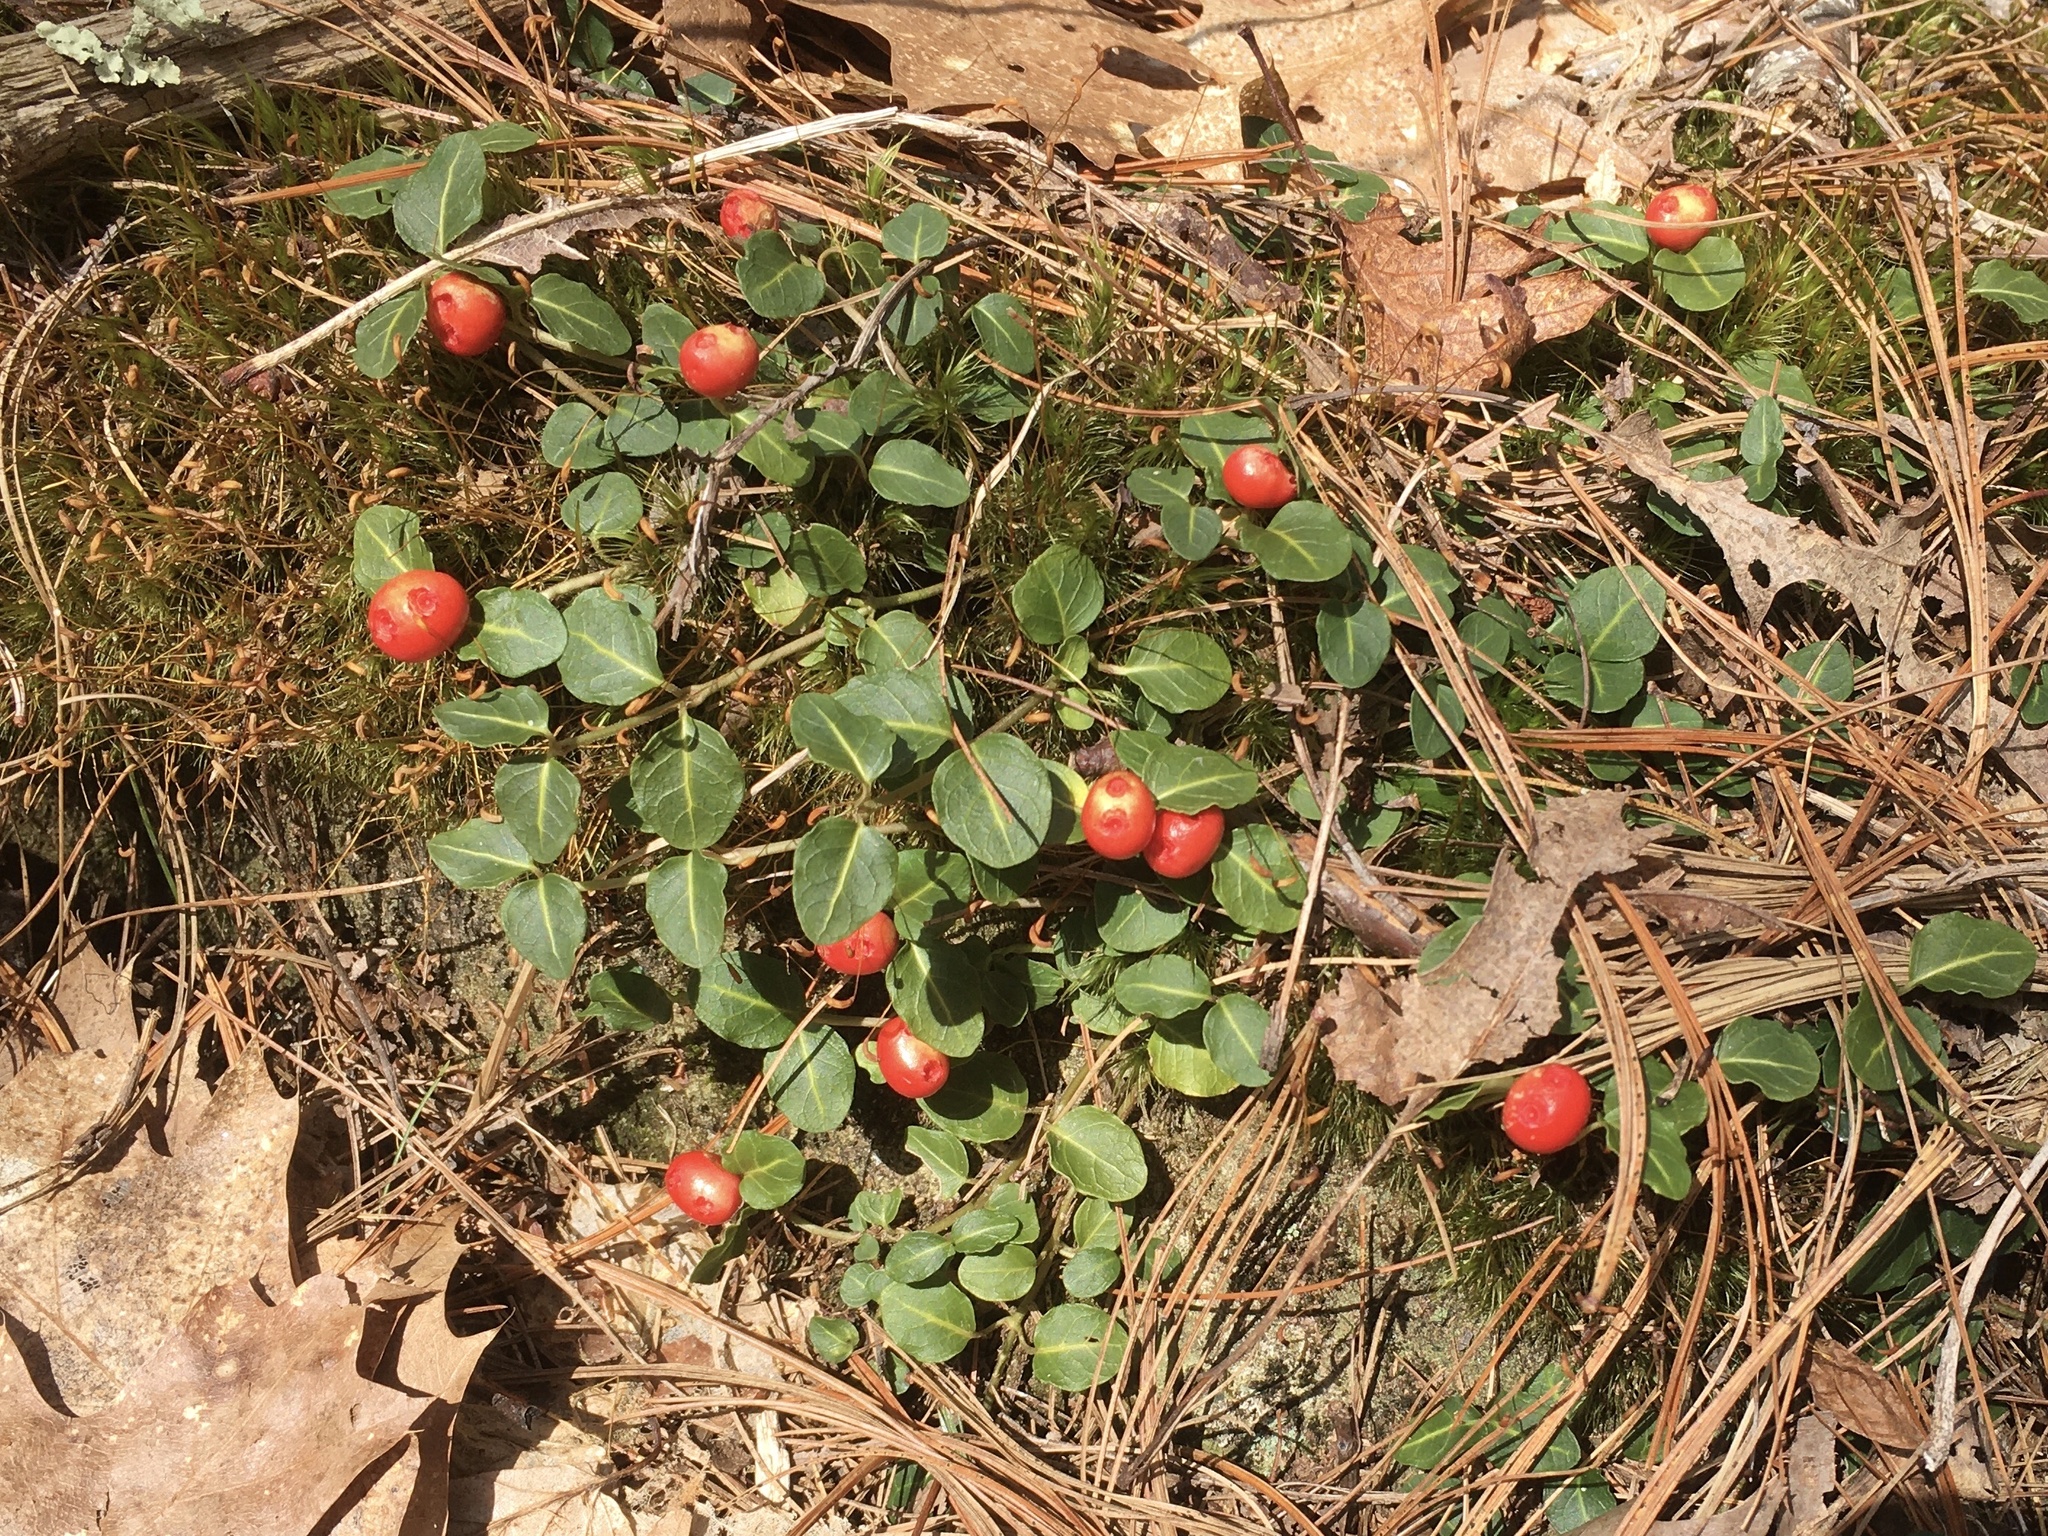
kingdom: Plantae
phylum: Tracheophyta
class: Magnoliopsida
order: Gentianales
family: Rubiaceae
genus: Mitchella
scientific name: Mitchella repens
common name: Partridge-berry
